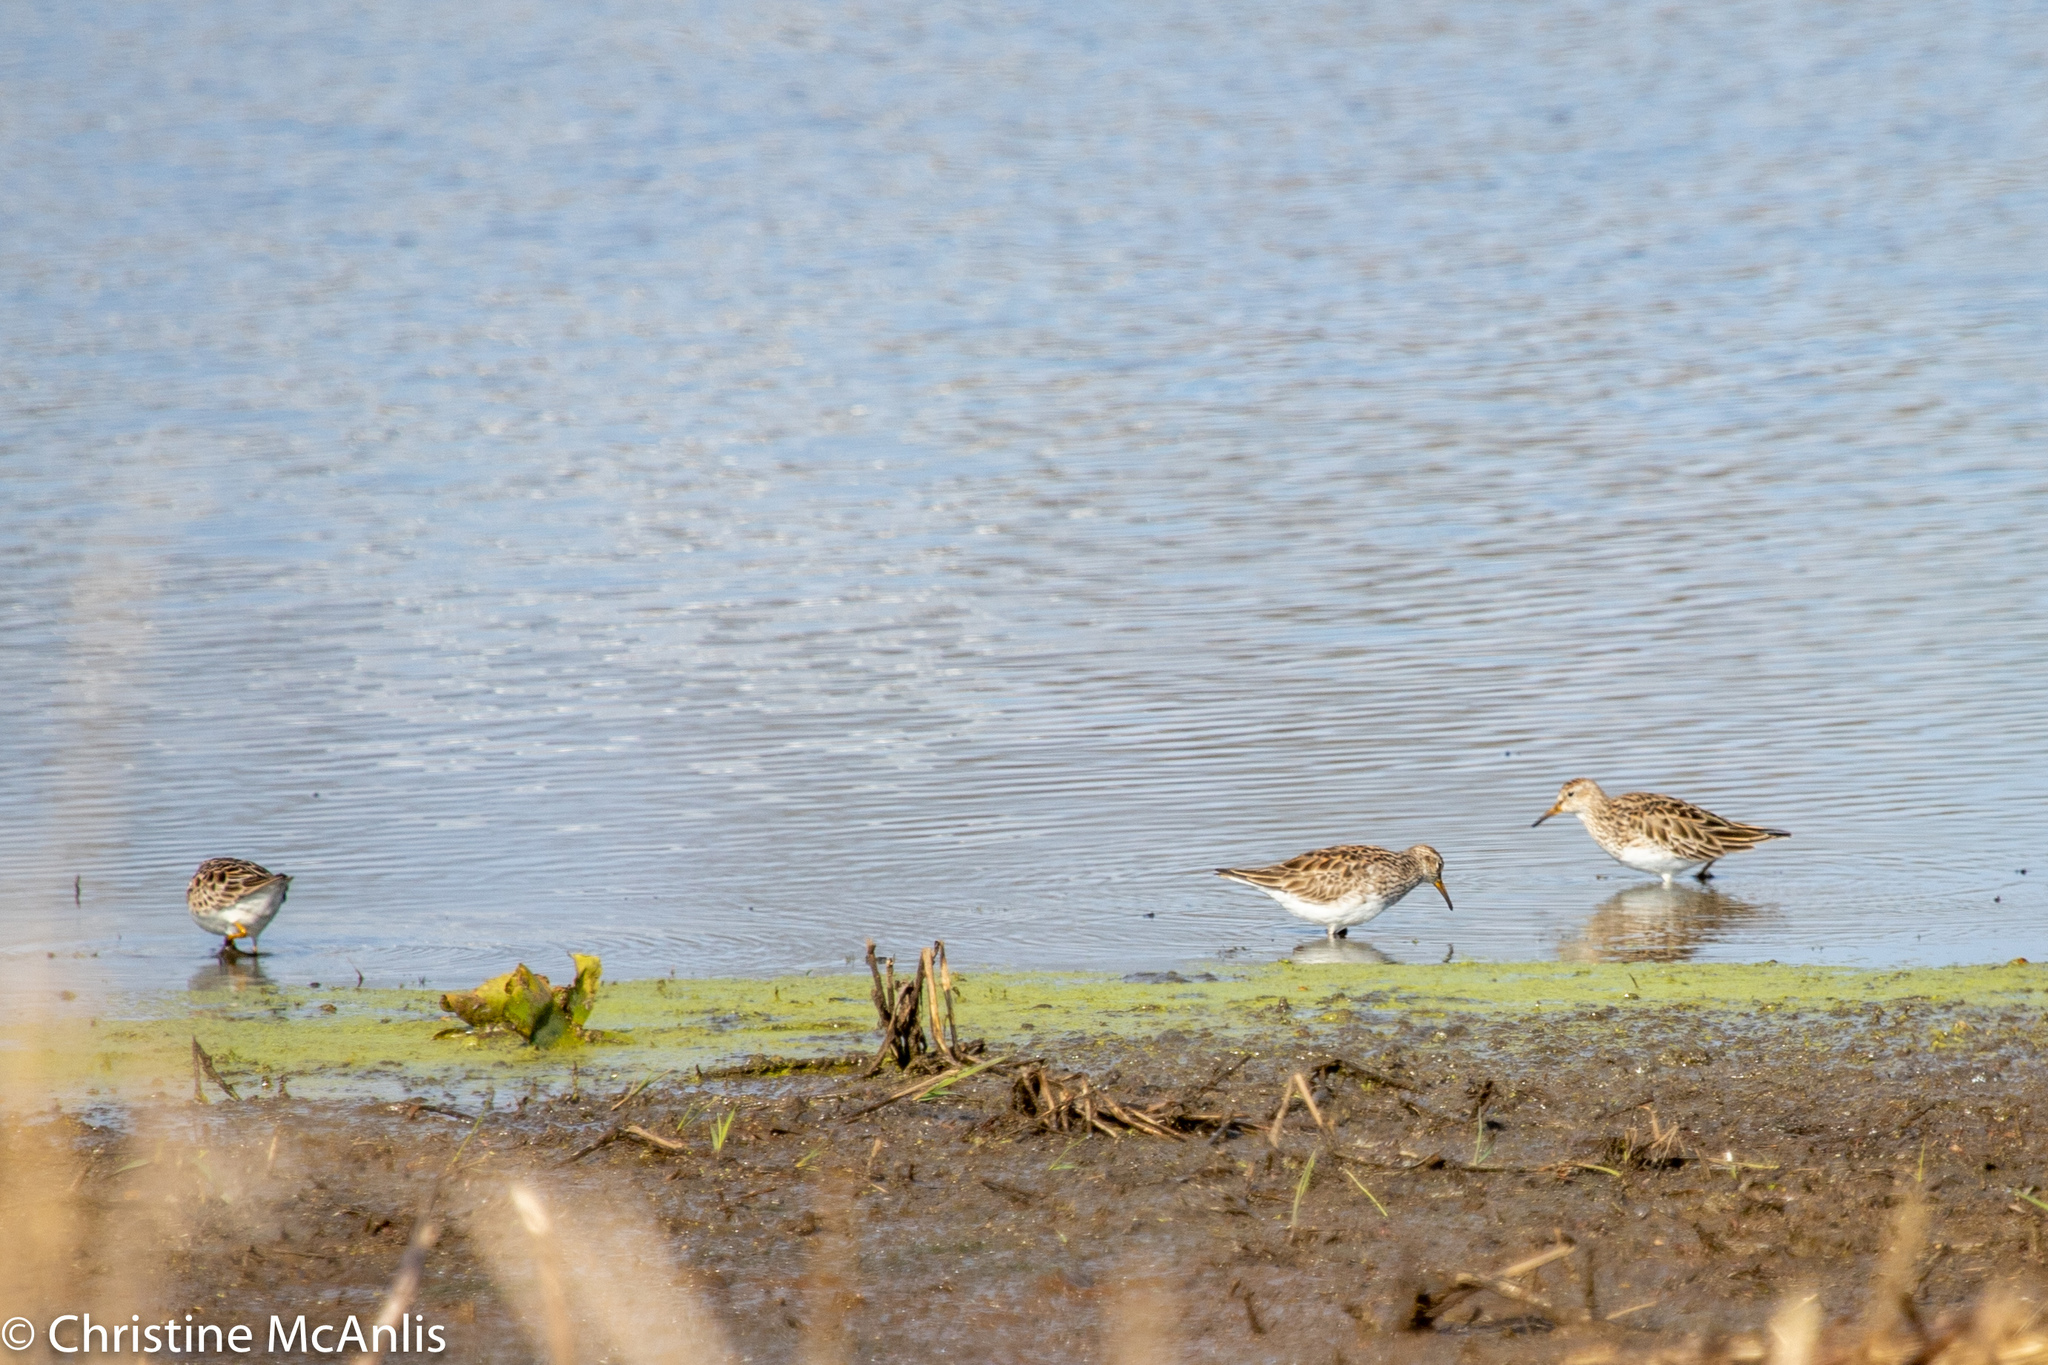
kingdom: Animalia
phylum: Chordata
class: Aves
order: Charadriiformes
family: Scolopacidae
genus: Calidris
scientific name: Calidris melanotos
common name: Pectoral sandpiper
